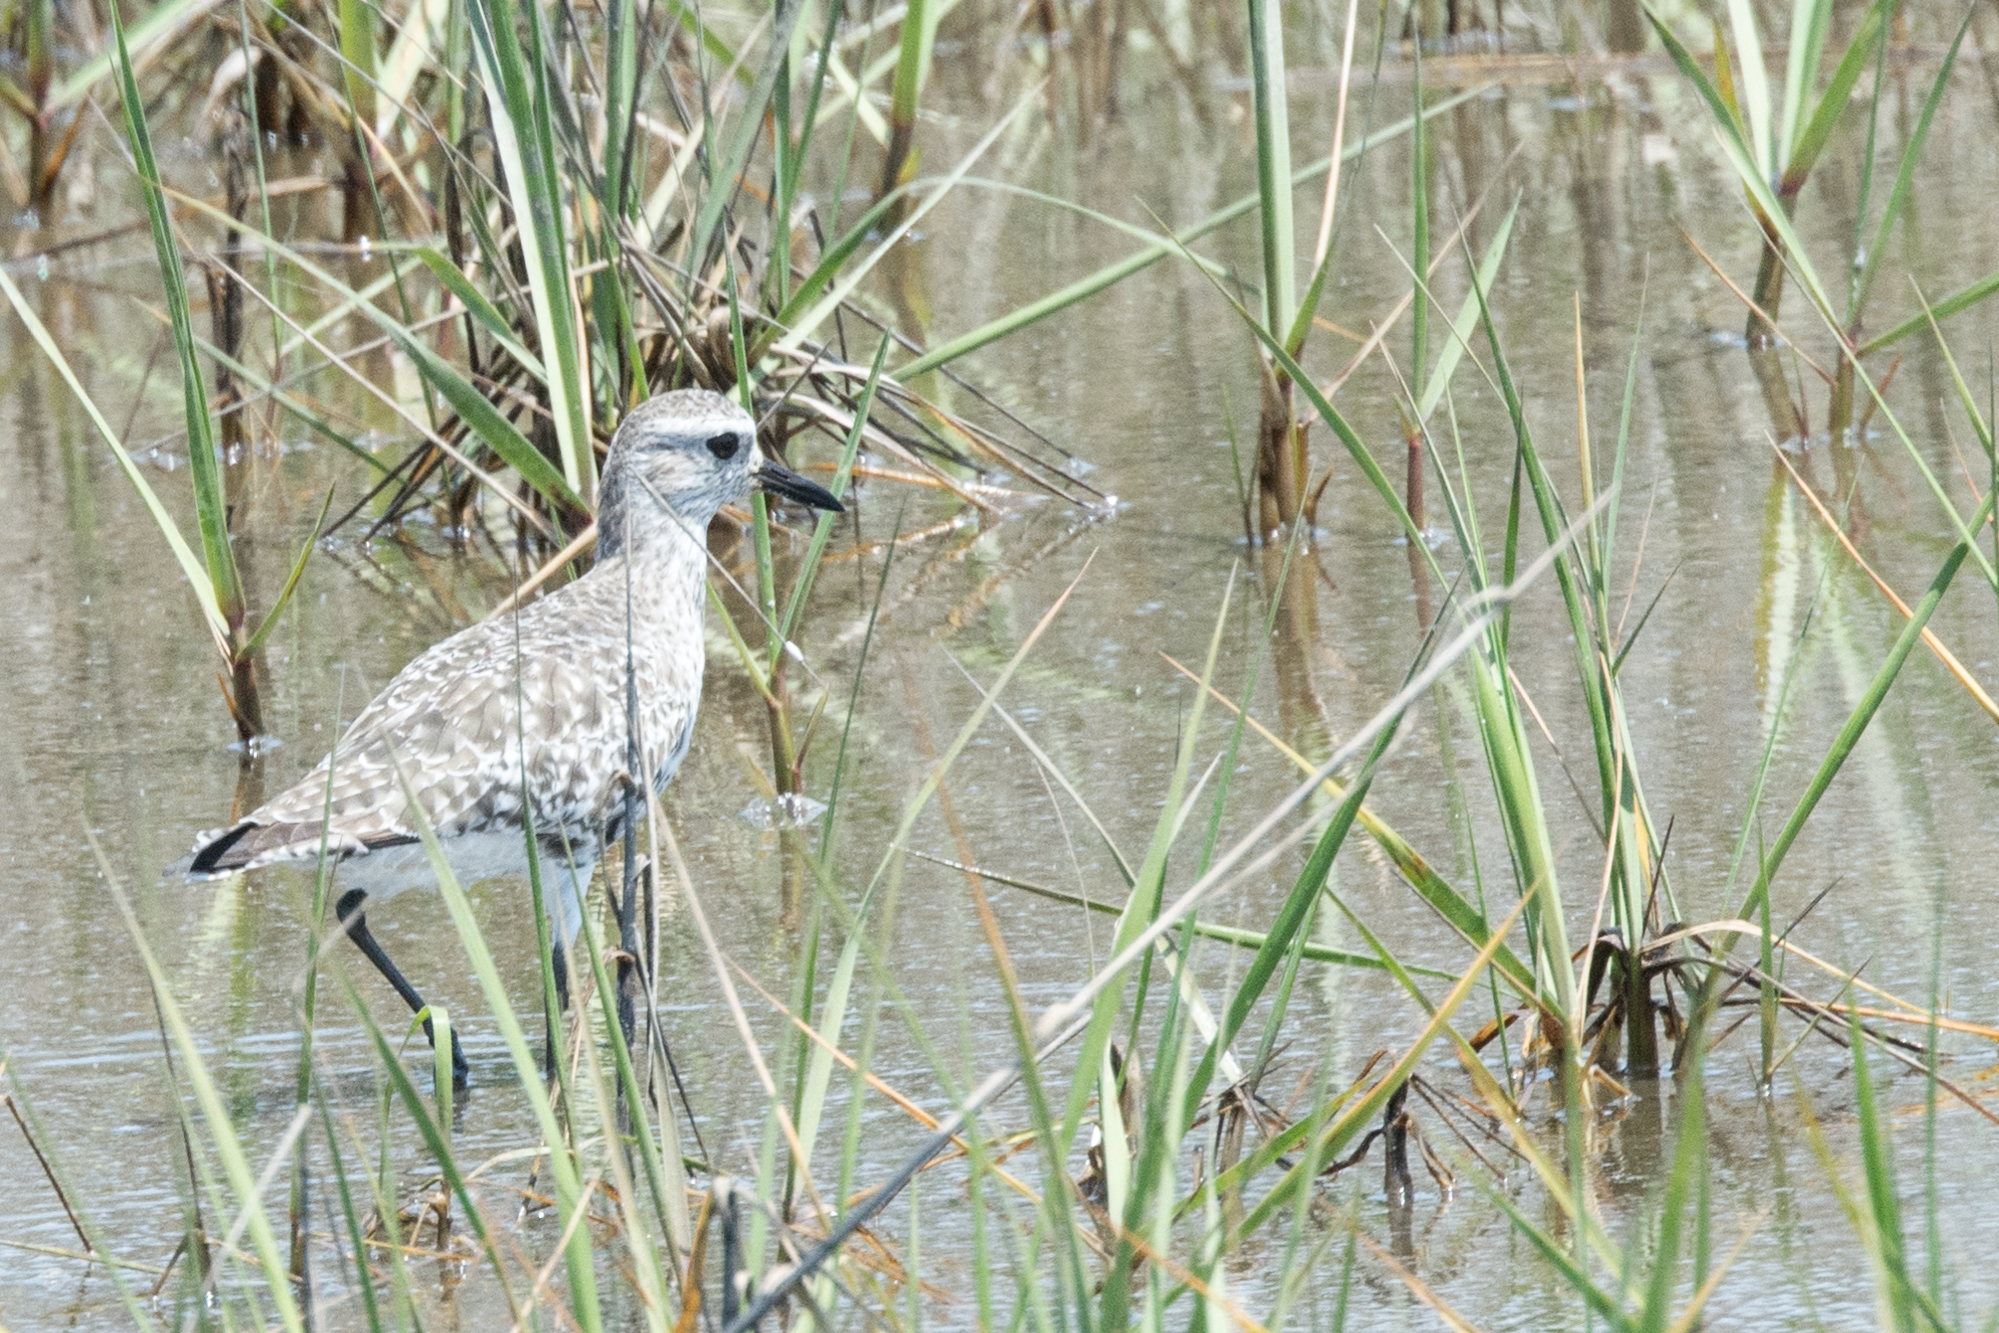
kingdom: Animalia
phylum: Chordata
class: Aves
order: Charadriiformes
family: Charadriidae
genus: Pluvialis
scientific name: Pluvialis squatarola
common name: Grey plover
